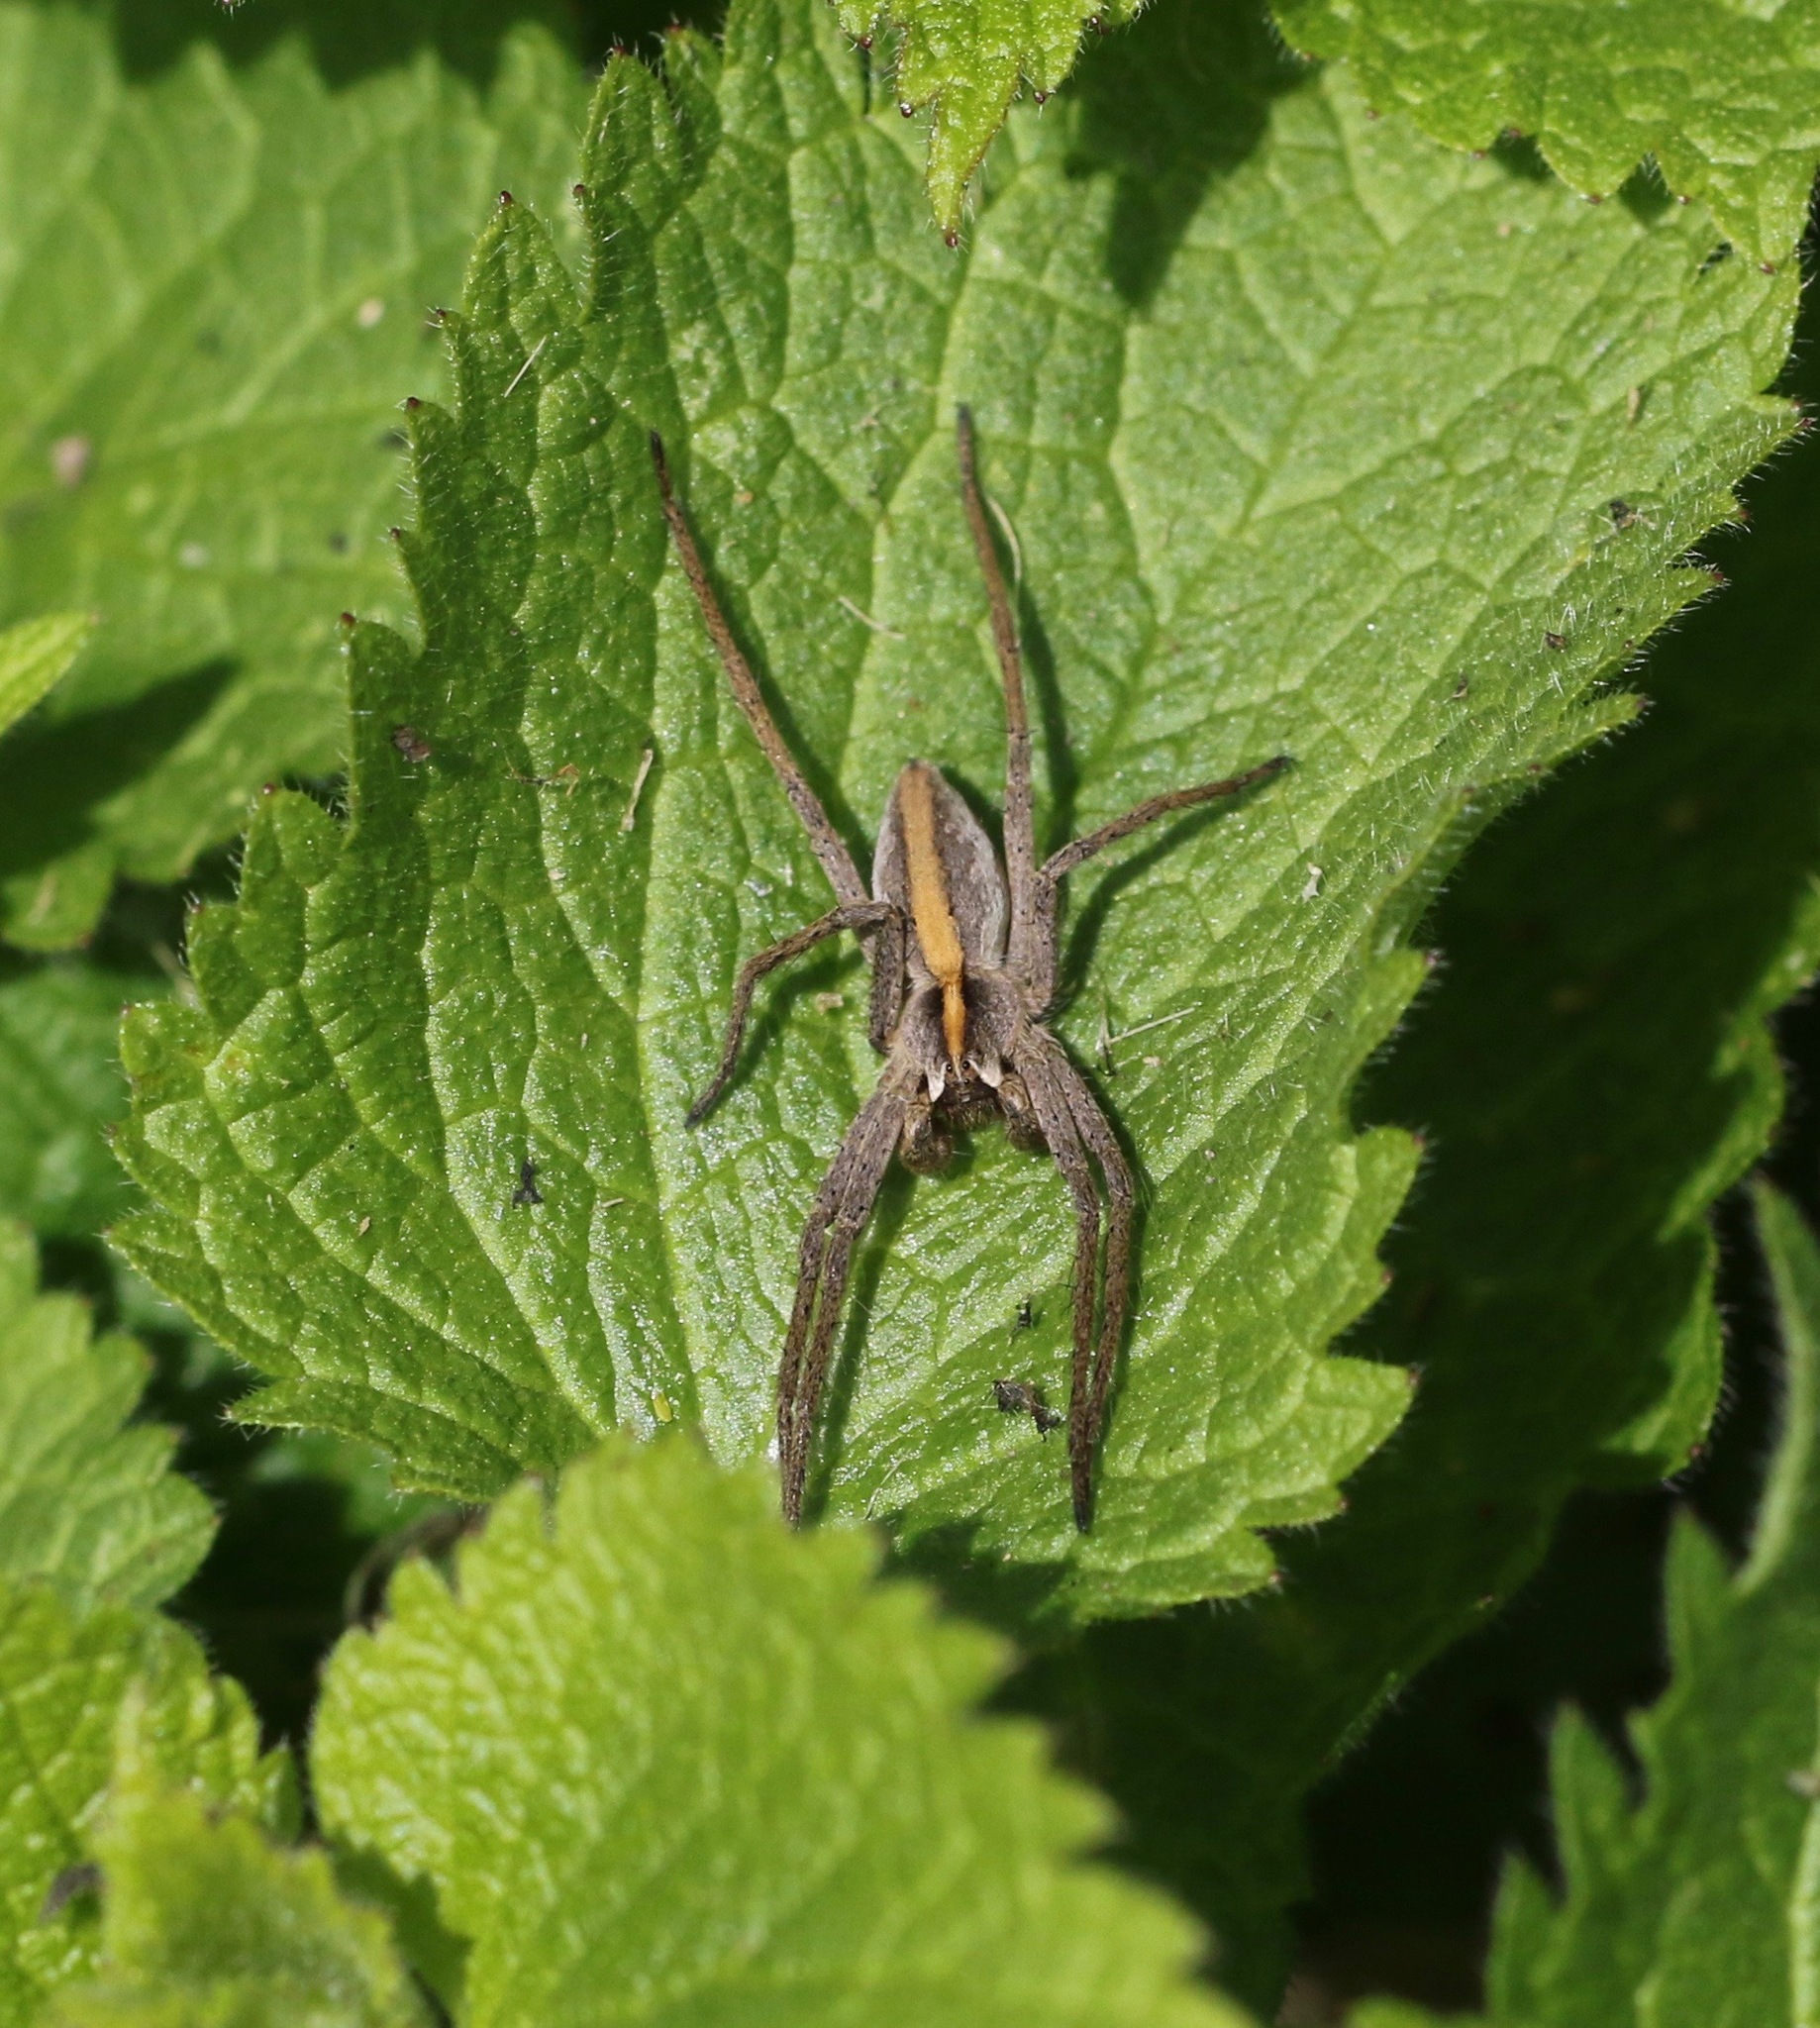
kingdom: Animalia
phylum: Arthropoda
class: Arachnida
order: Araneae
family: Pisauridae
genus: Pisaura
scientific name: Pisaura mirabilis
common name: Tent spider
